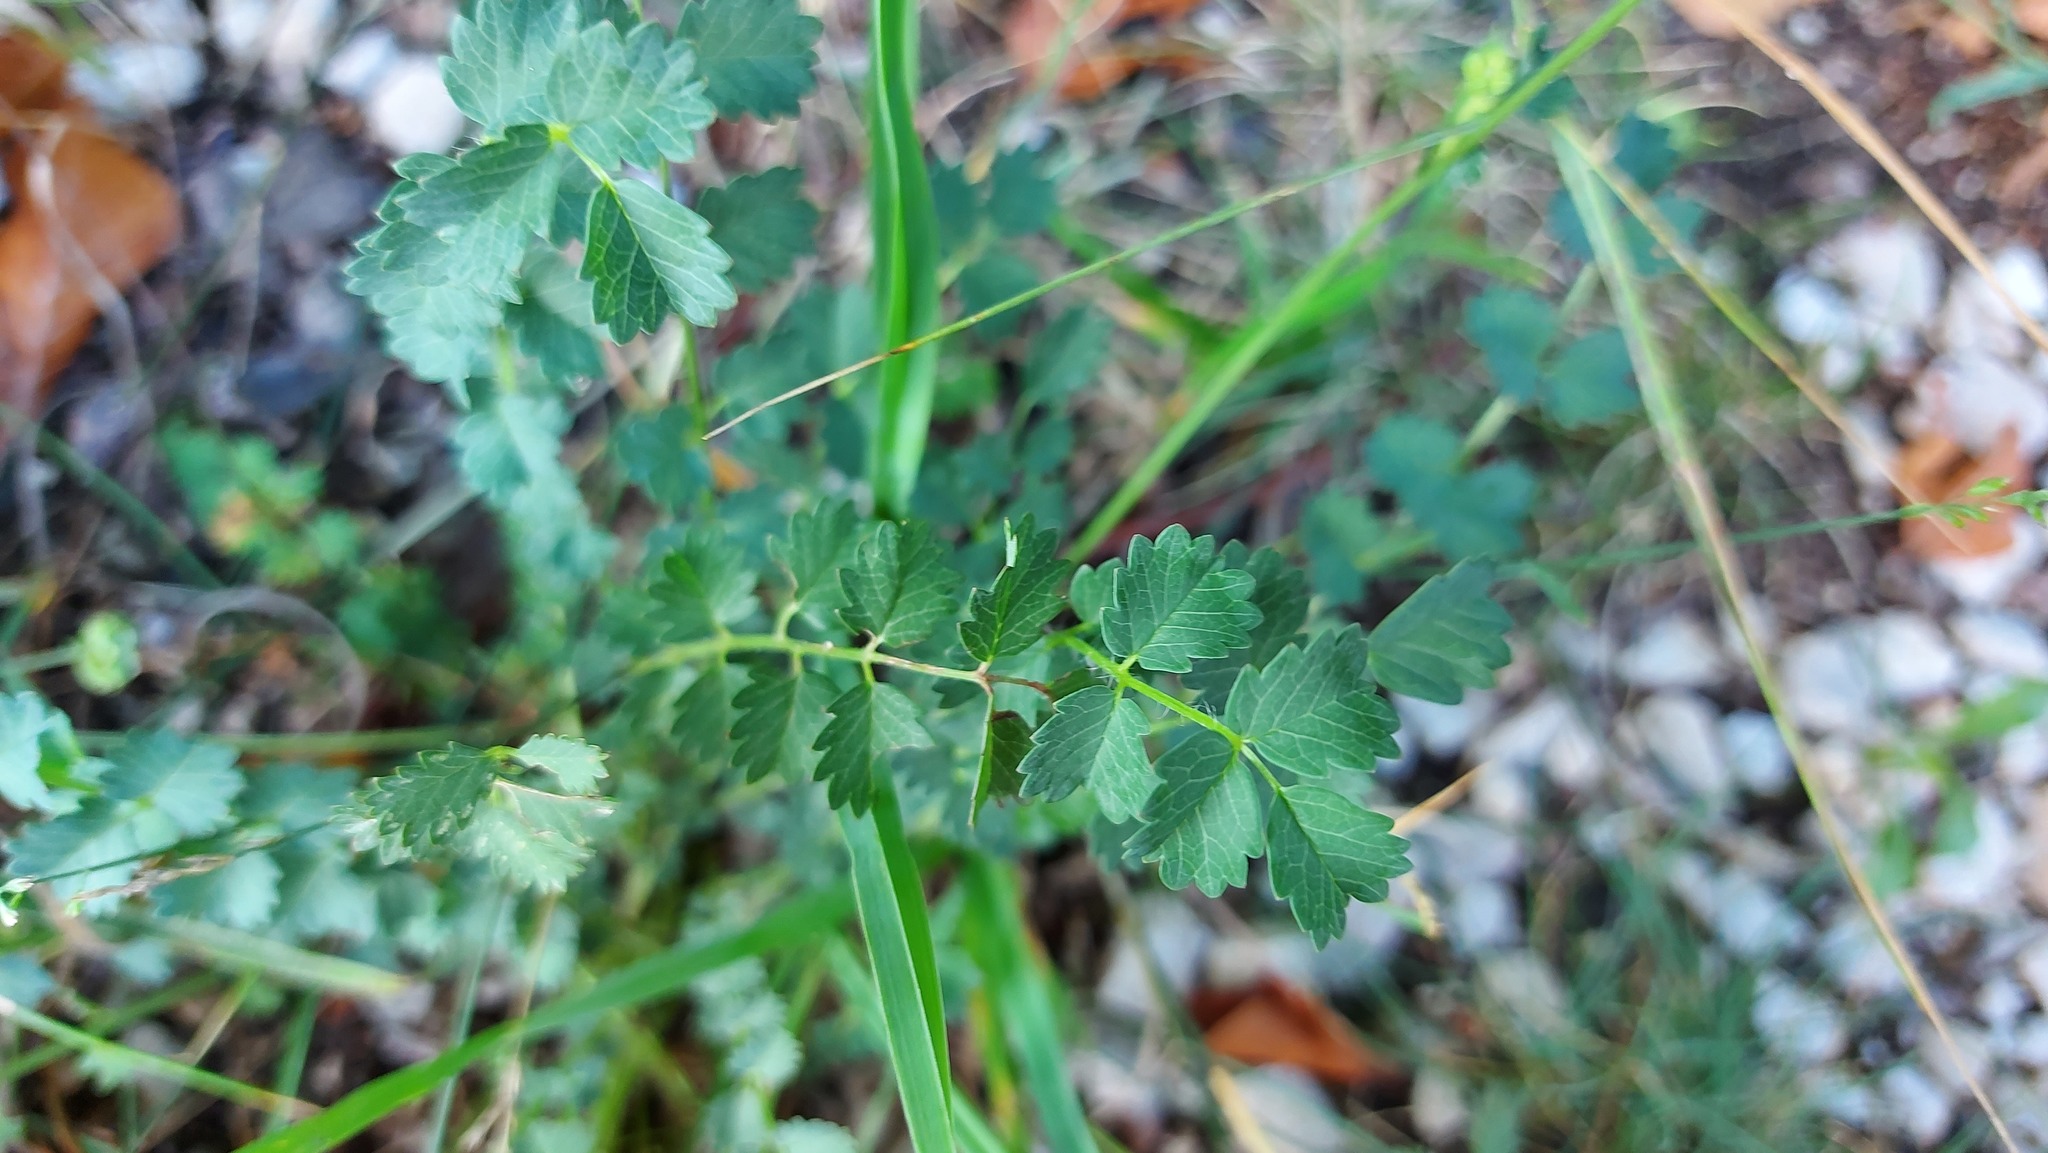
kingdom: Plantae
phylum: Tracheophyta
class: Magnoliopsida
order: Rosales
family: Rosaceae
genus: Poterium
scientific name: Poterium sanguisorba
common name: Salad burnet
